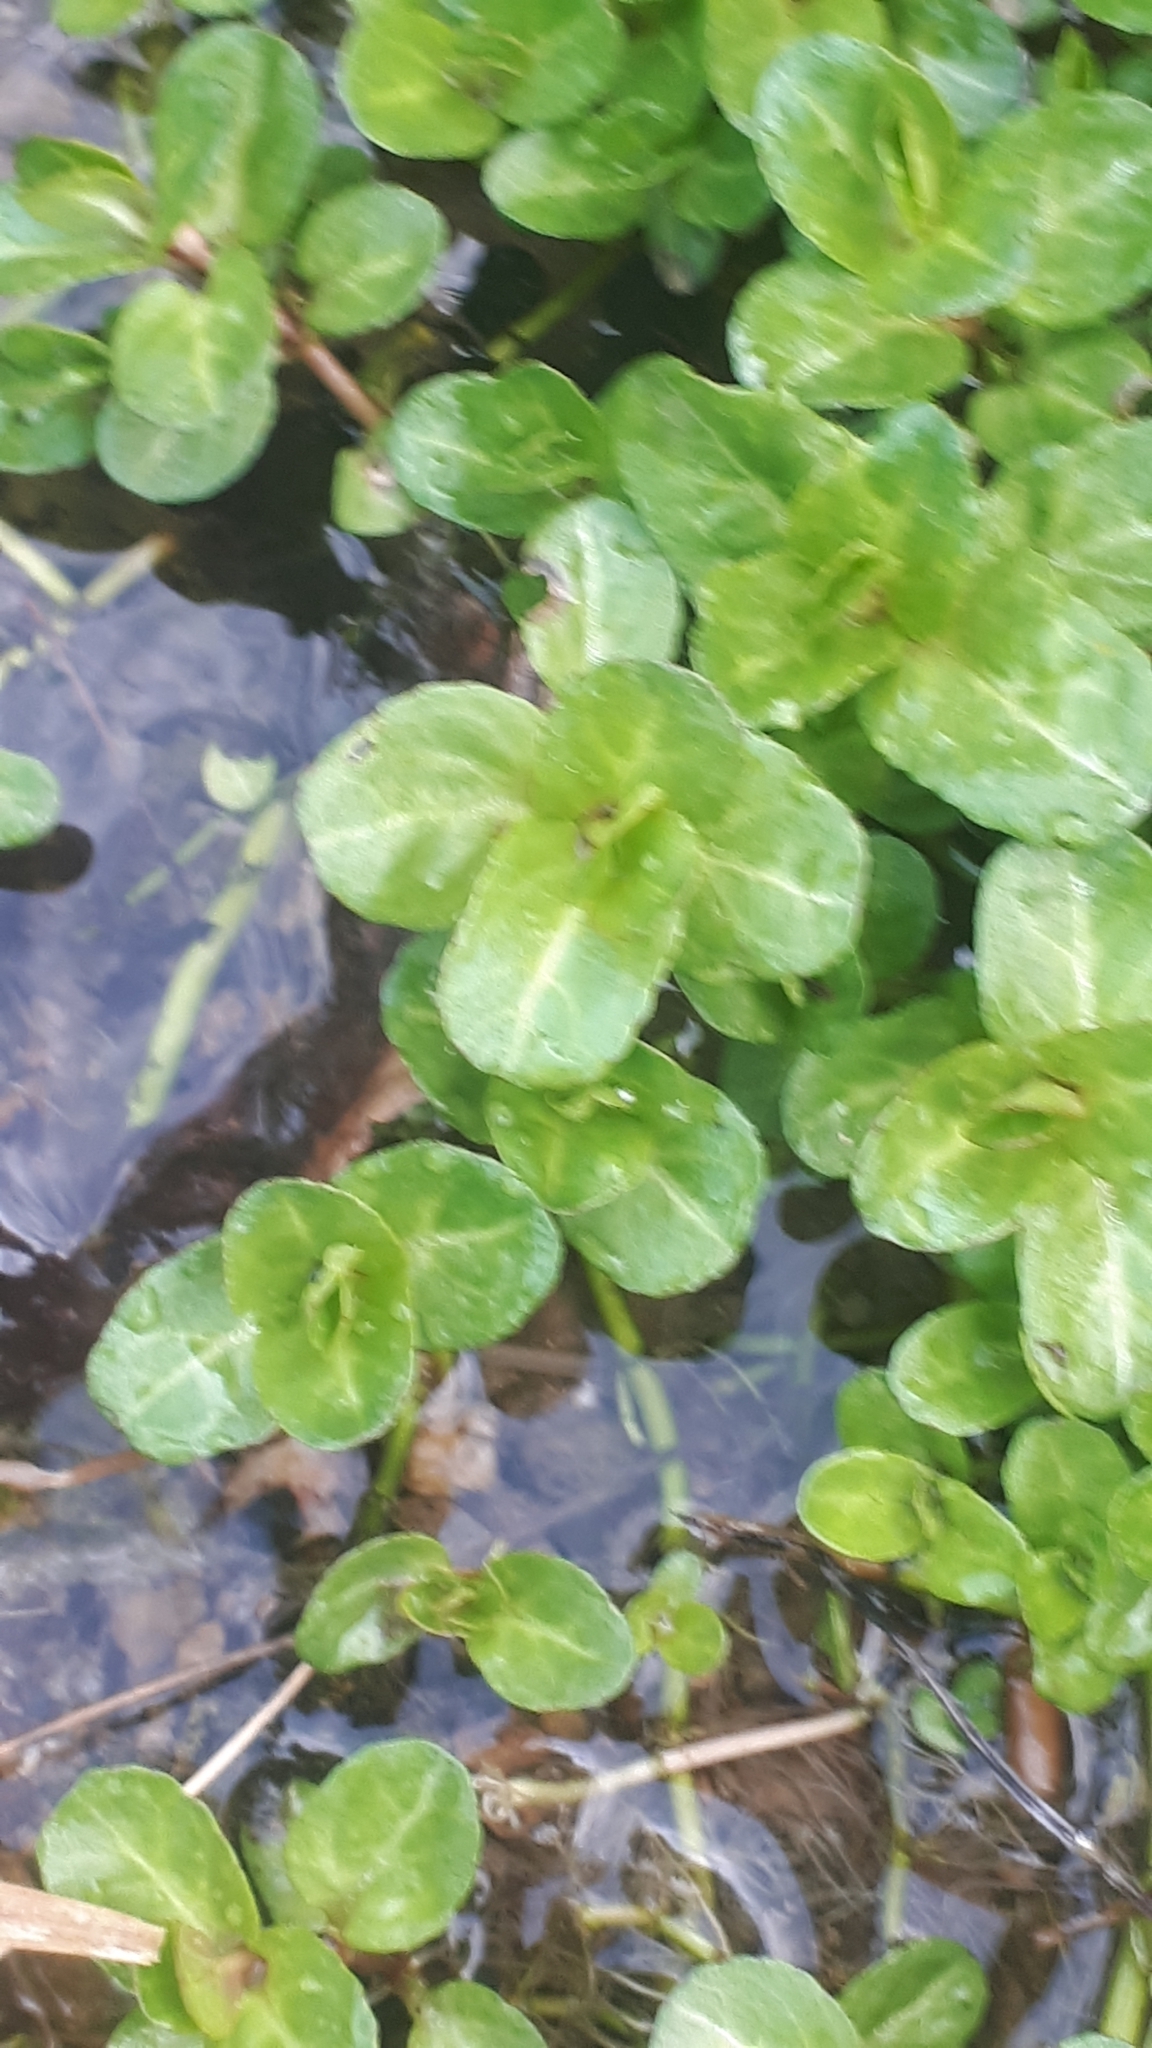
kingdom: Plantae
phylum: Tracheophyta
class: Magnoliopsida
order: Lamiales
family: Plantaginaceae
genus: Veronica
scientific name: Veronica beccabunga
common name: Brooklime
